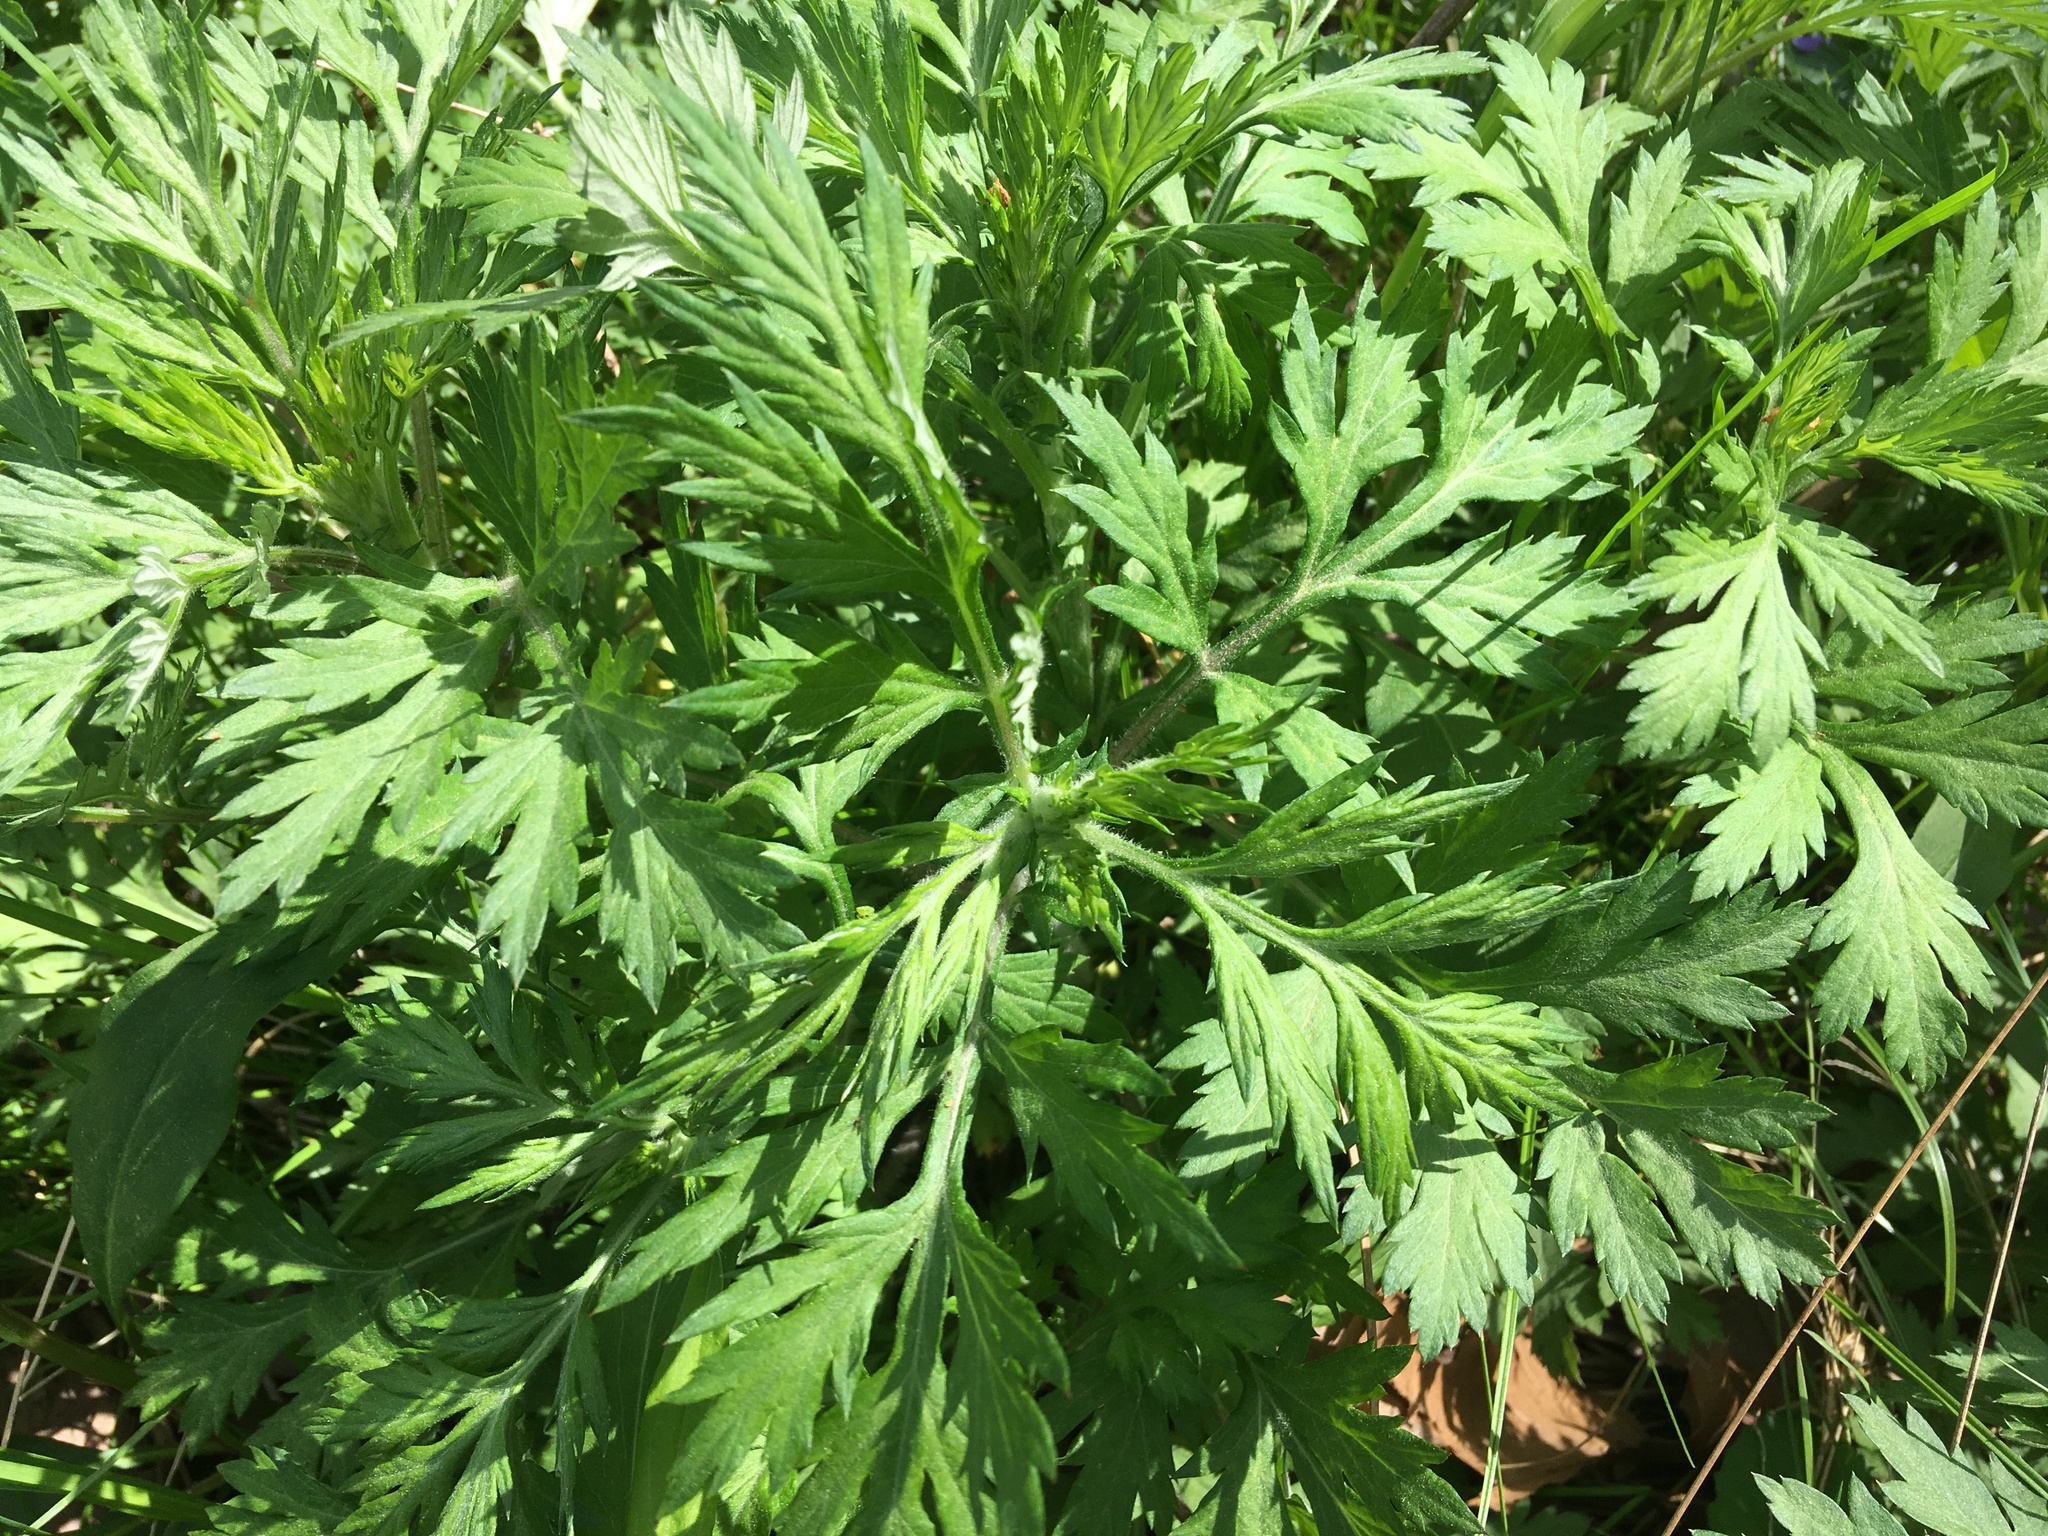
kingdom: Plantae
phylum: Tracheophyta
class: Magnoliopsida
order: Asterales
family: Asteraceae
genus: Artemisia
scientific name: Artemisia vulgaris
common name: Mugwort
